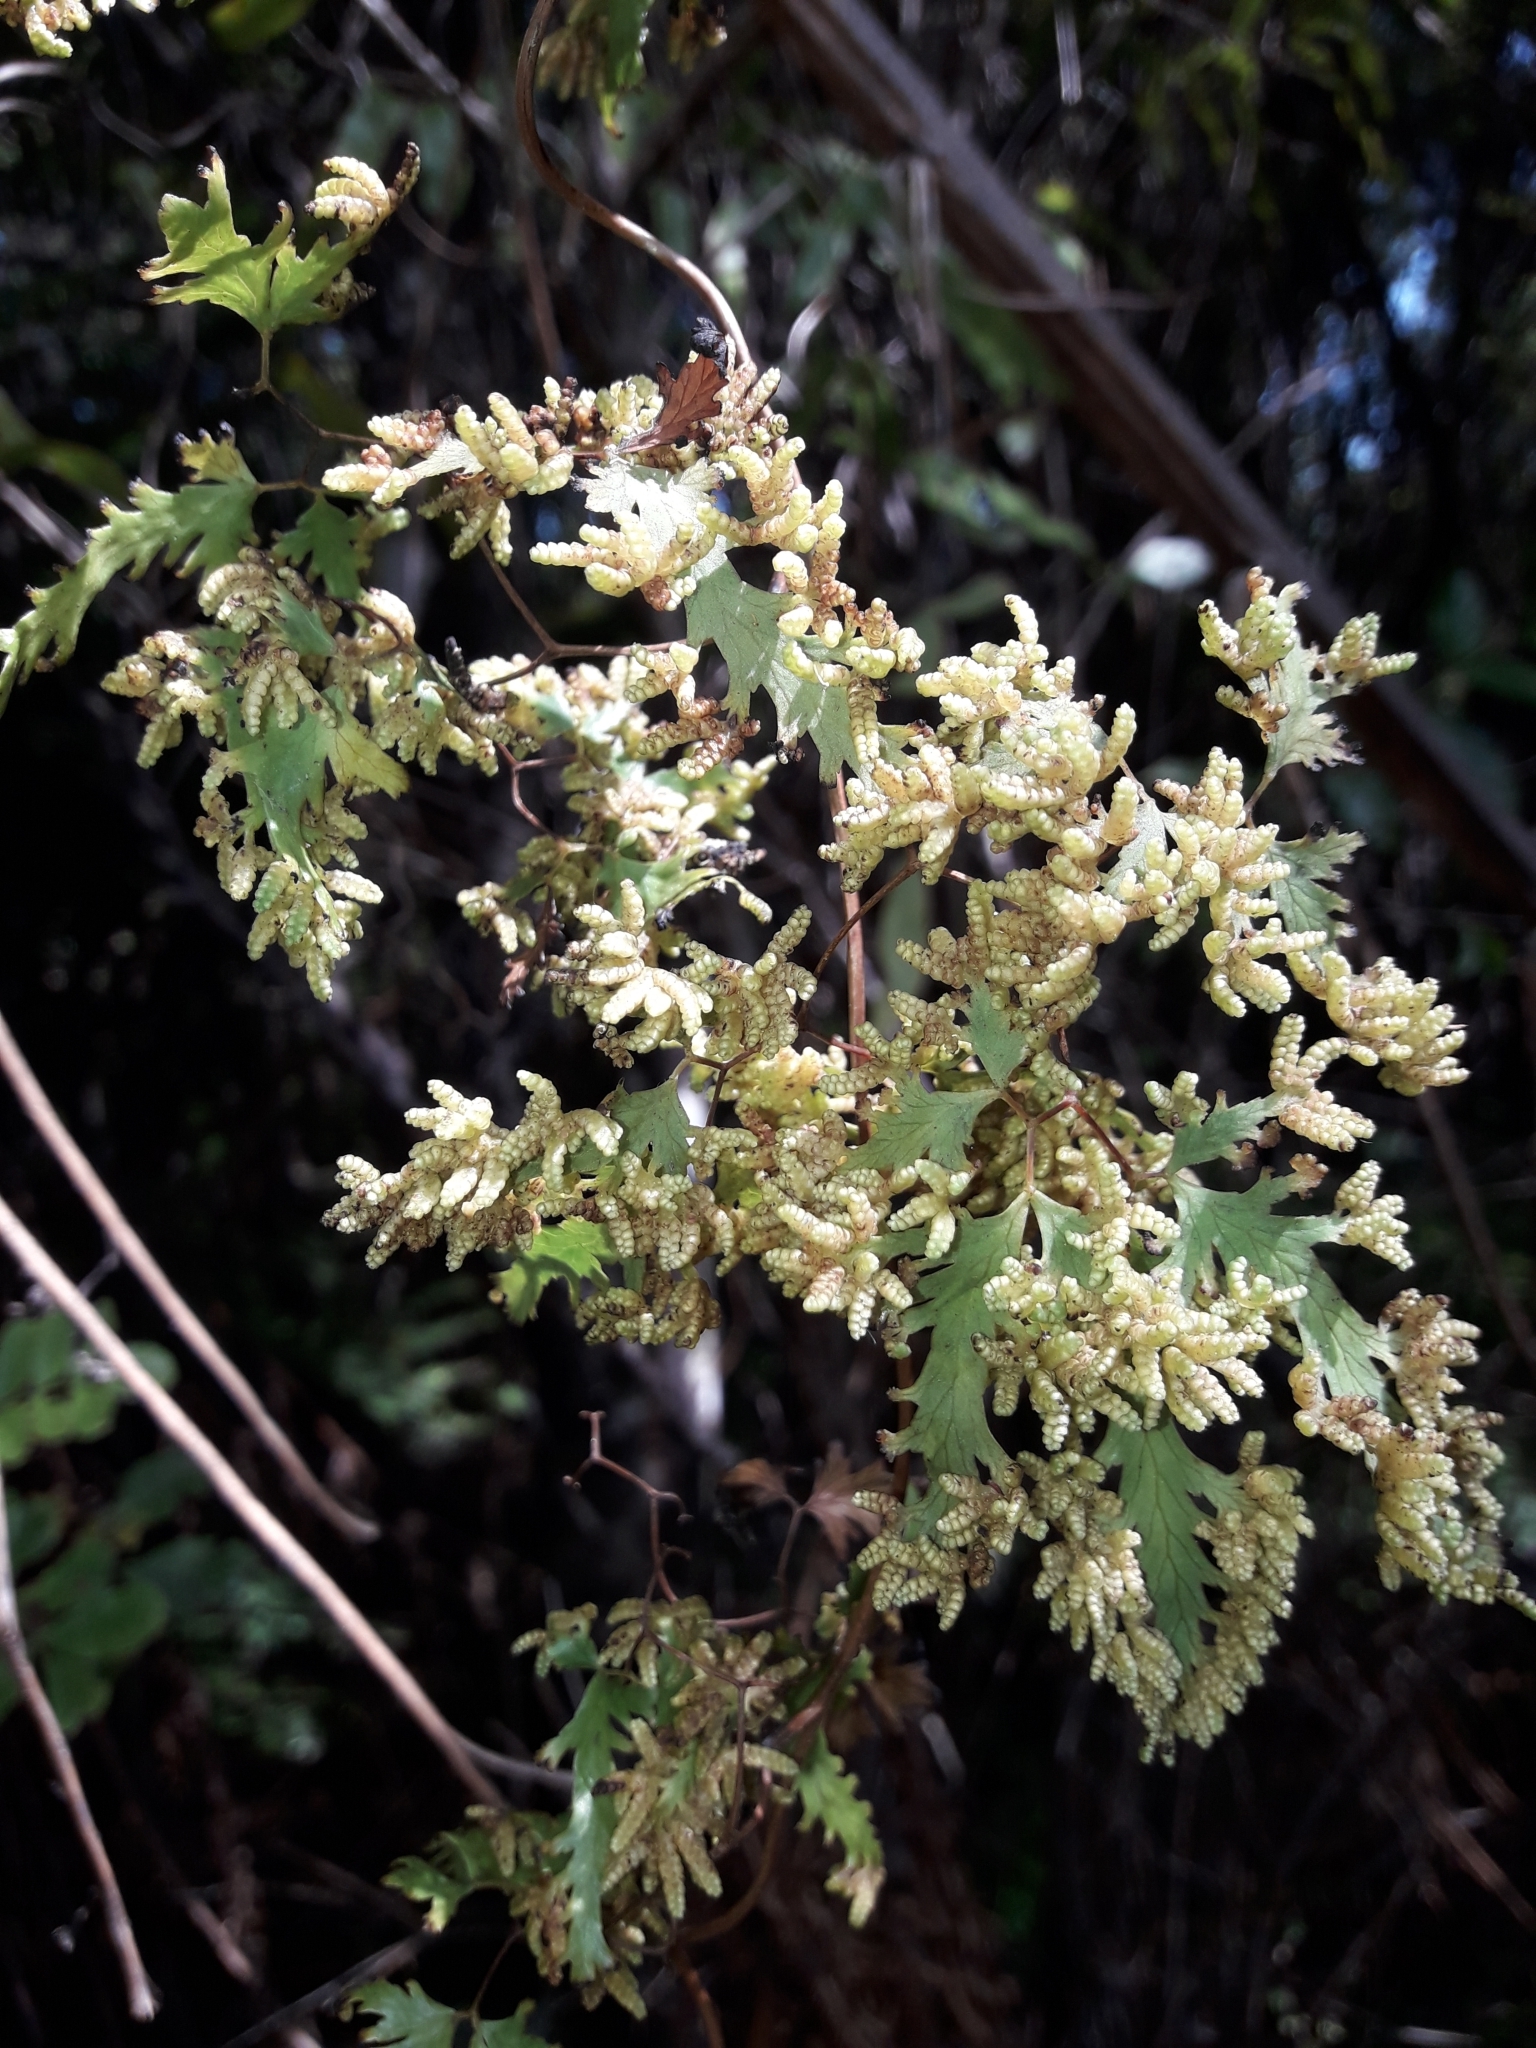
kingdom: Plantae
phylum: Tracheophyta
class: Polypodiopsida
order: Schizaeales
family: Lygodiaceae
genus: Lygodium
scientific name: Lygodium articulatum
